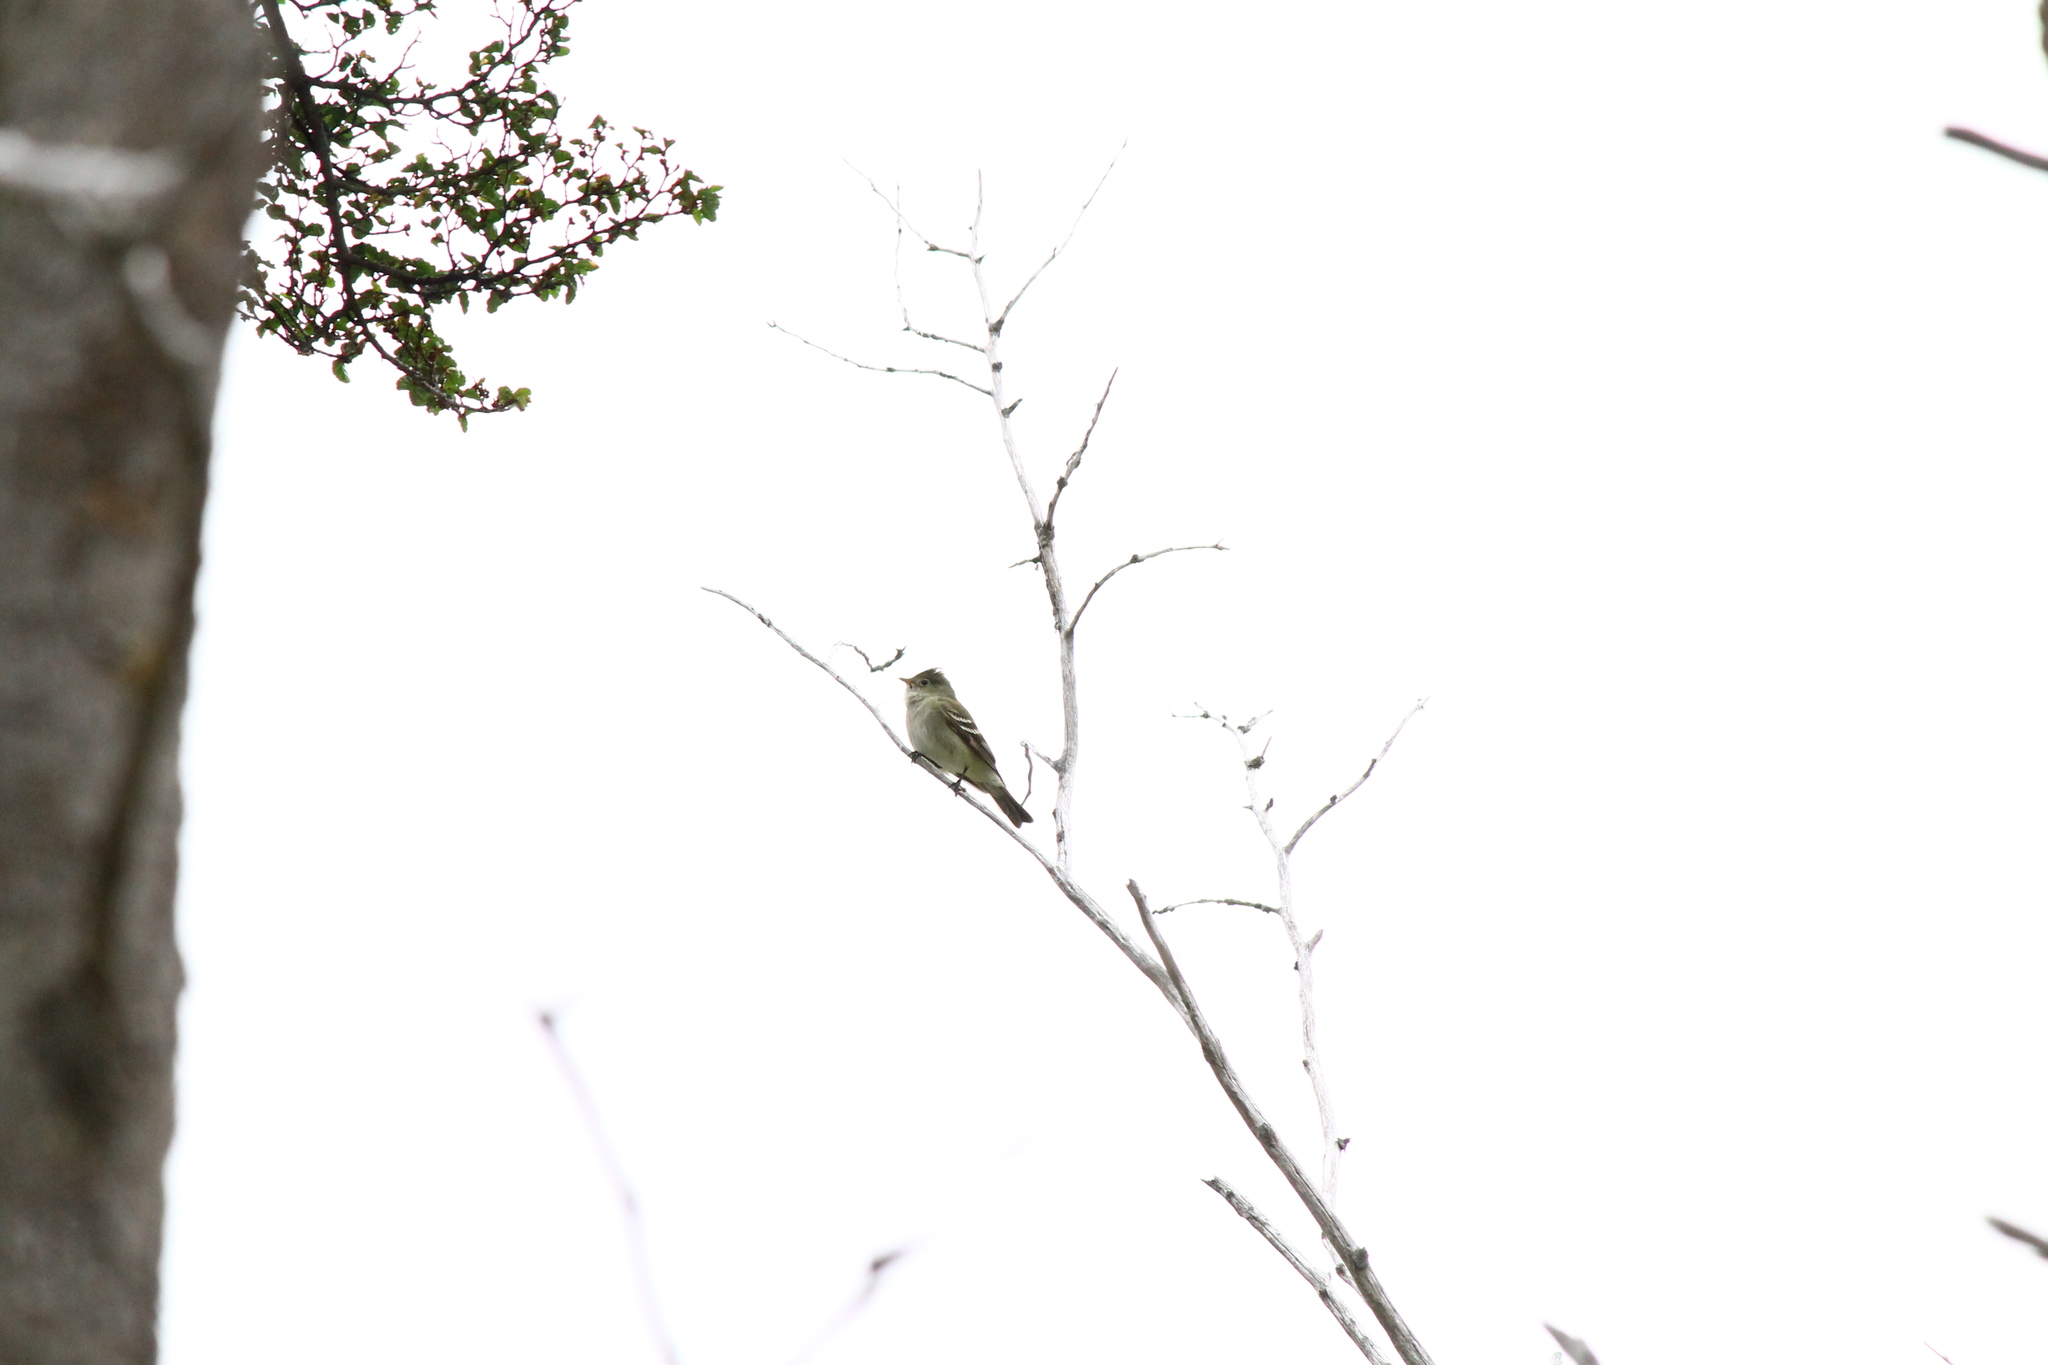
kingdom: Animalia
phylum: Chordata
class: Aves
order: Passeriformes
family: Tyrannidae
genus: Elaenia
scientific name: Elaenia albiceps
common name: White-crested elaenia
